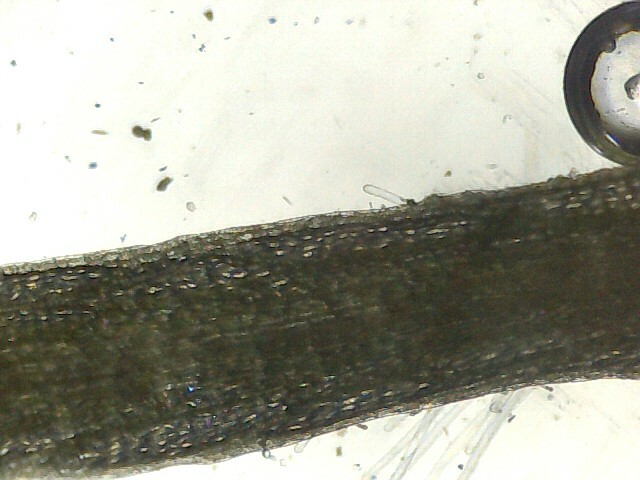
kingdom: Plantae
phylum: Marchantiophyta
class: Marchantiopsida
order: Marchantiales
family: Ricciaceae
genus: Riccia
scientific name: Riccia fluitans
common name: Floating crystalwort
